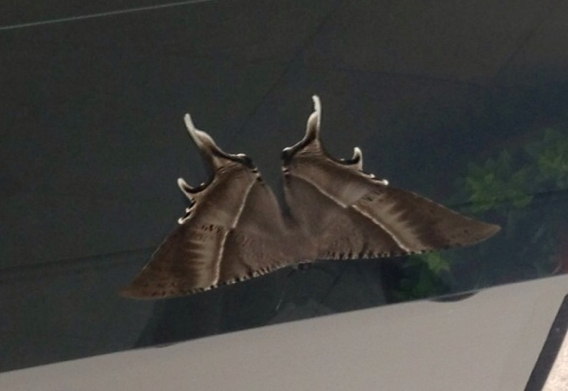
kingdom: Animalia
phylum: Arthropoda
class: Insecta
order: Lepidoptera
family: Uraniidae
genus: Lyssa
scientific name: Lyssa zampa
